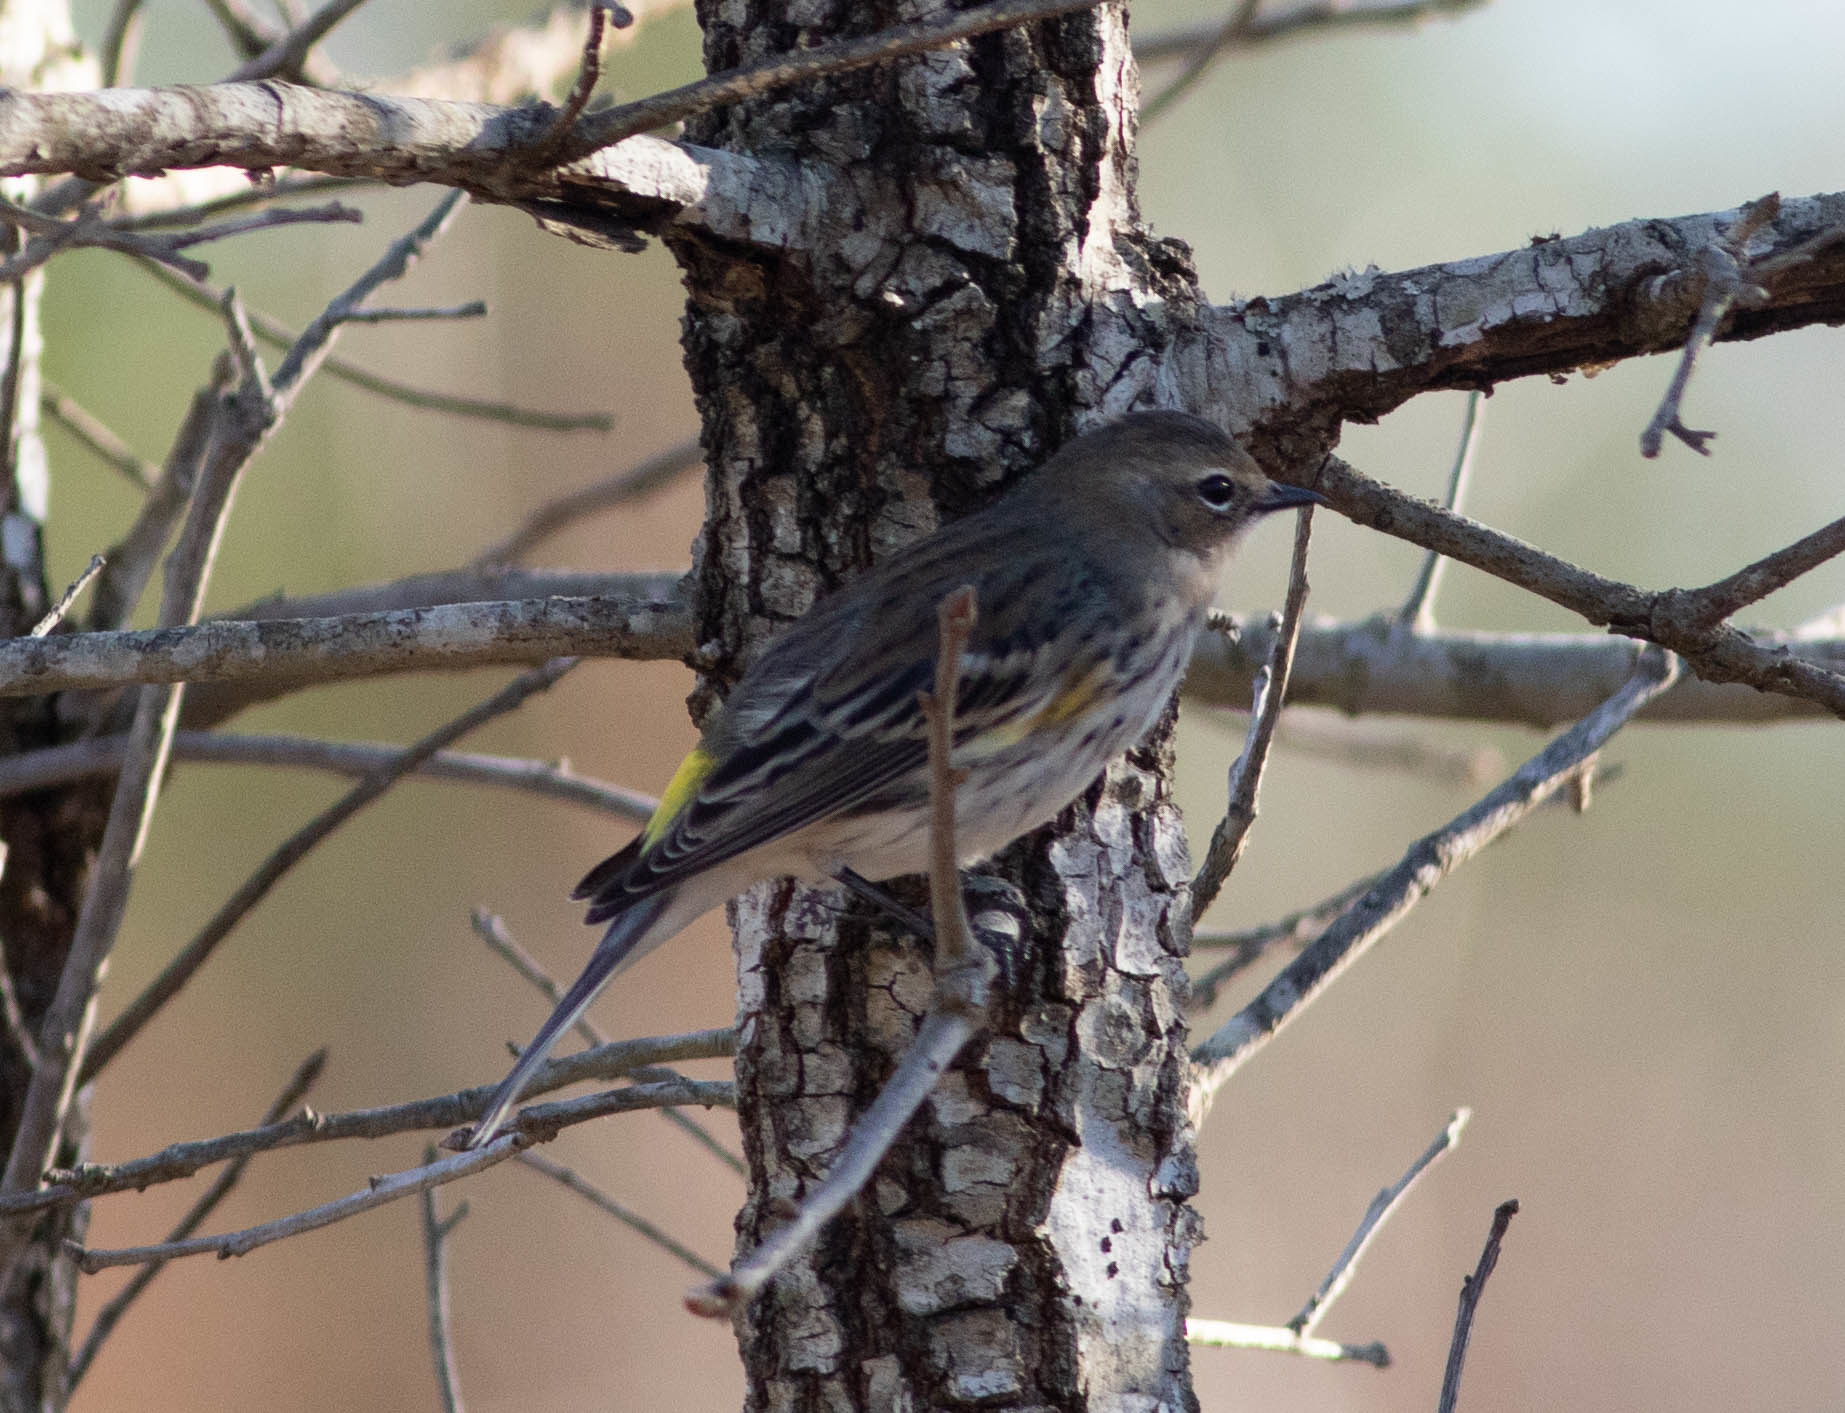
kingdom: Animalia
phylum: Chordata
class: Aves
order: Passeriformes
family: Parulidae
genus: Setophaga
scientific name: Setophaga coronata
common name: Myrtle warbler
